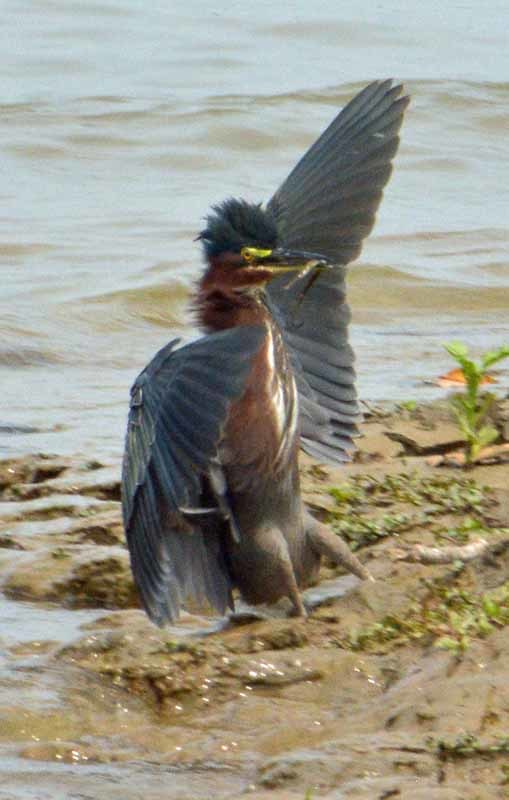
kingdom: Animalia
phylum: Chordata
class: Aves
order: Pelecaniformes
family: Ardeidae
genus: Butorides
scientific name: Butorides virescens
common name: Green heron
